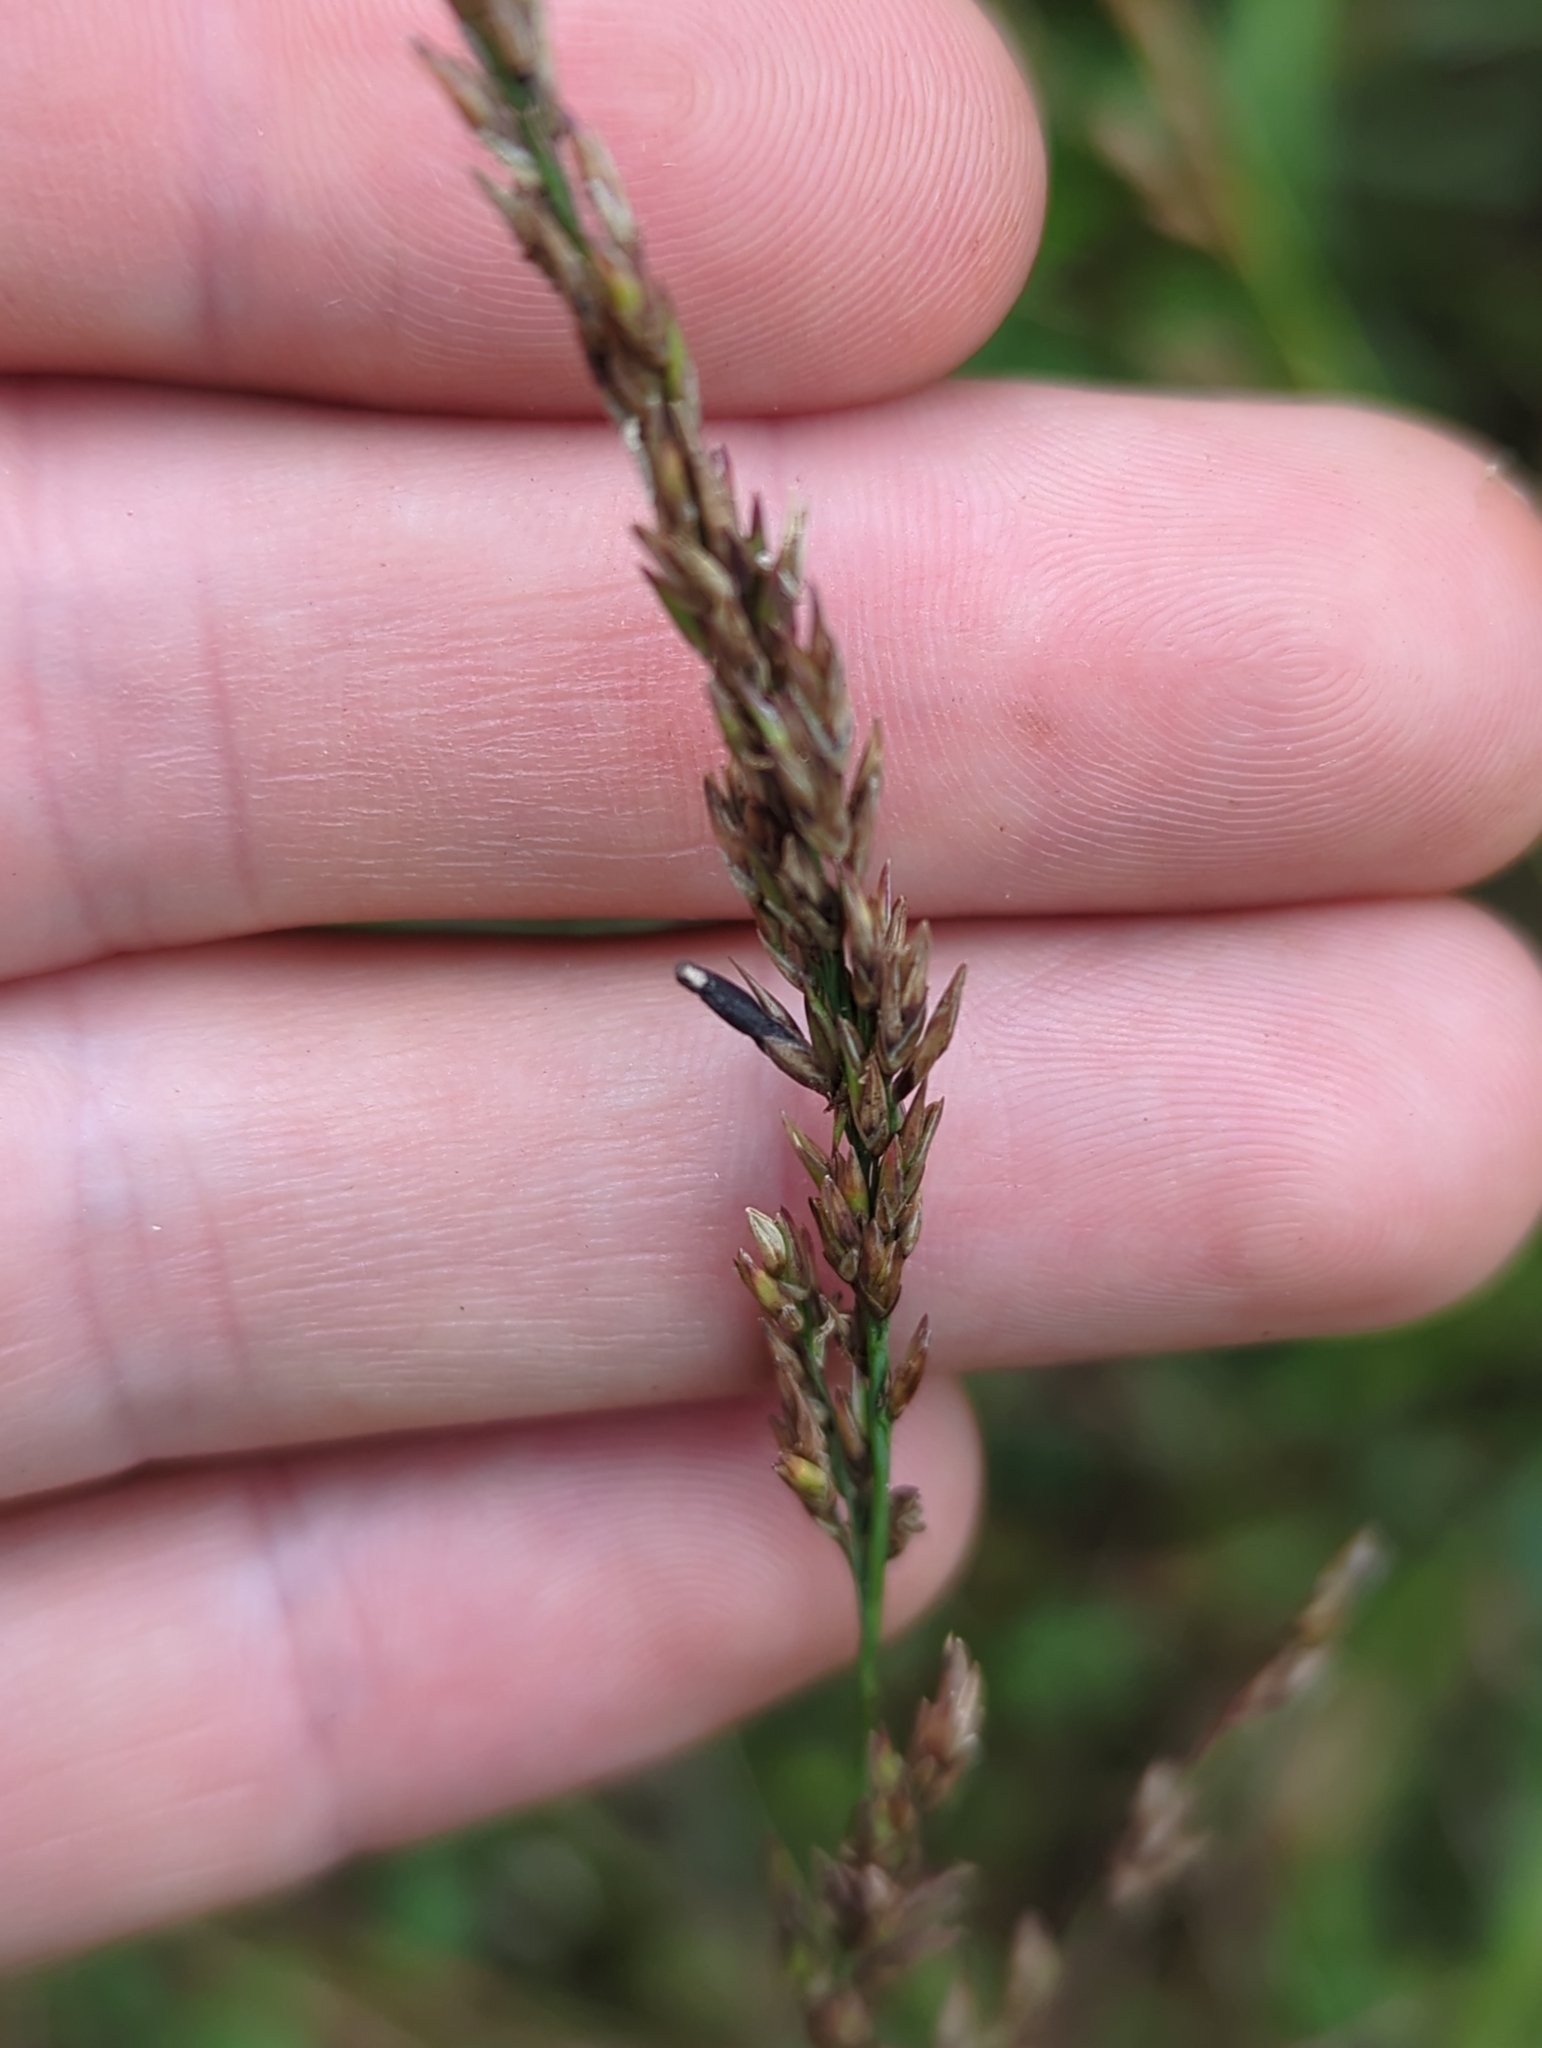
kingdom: Fungi
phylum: Ascomycota
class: Sordariomycetes
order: Hypocreales
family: Clavicipitaceae
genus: Claviceps
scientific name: Claviceps purpurea
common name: Rye ergot
